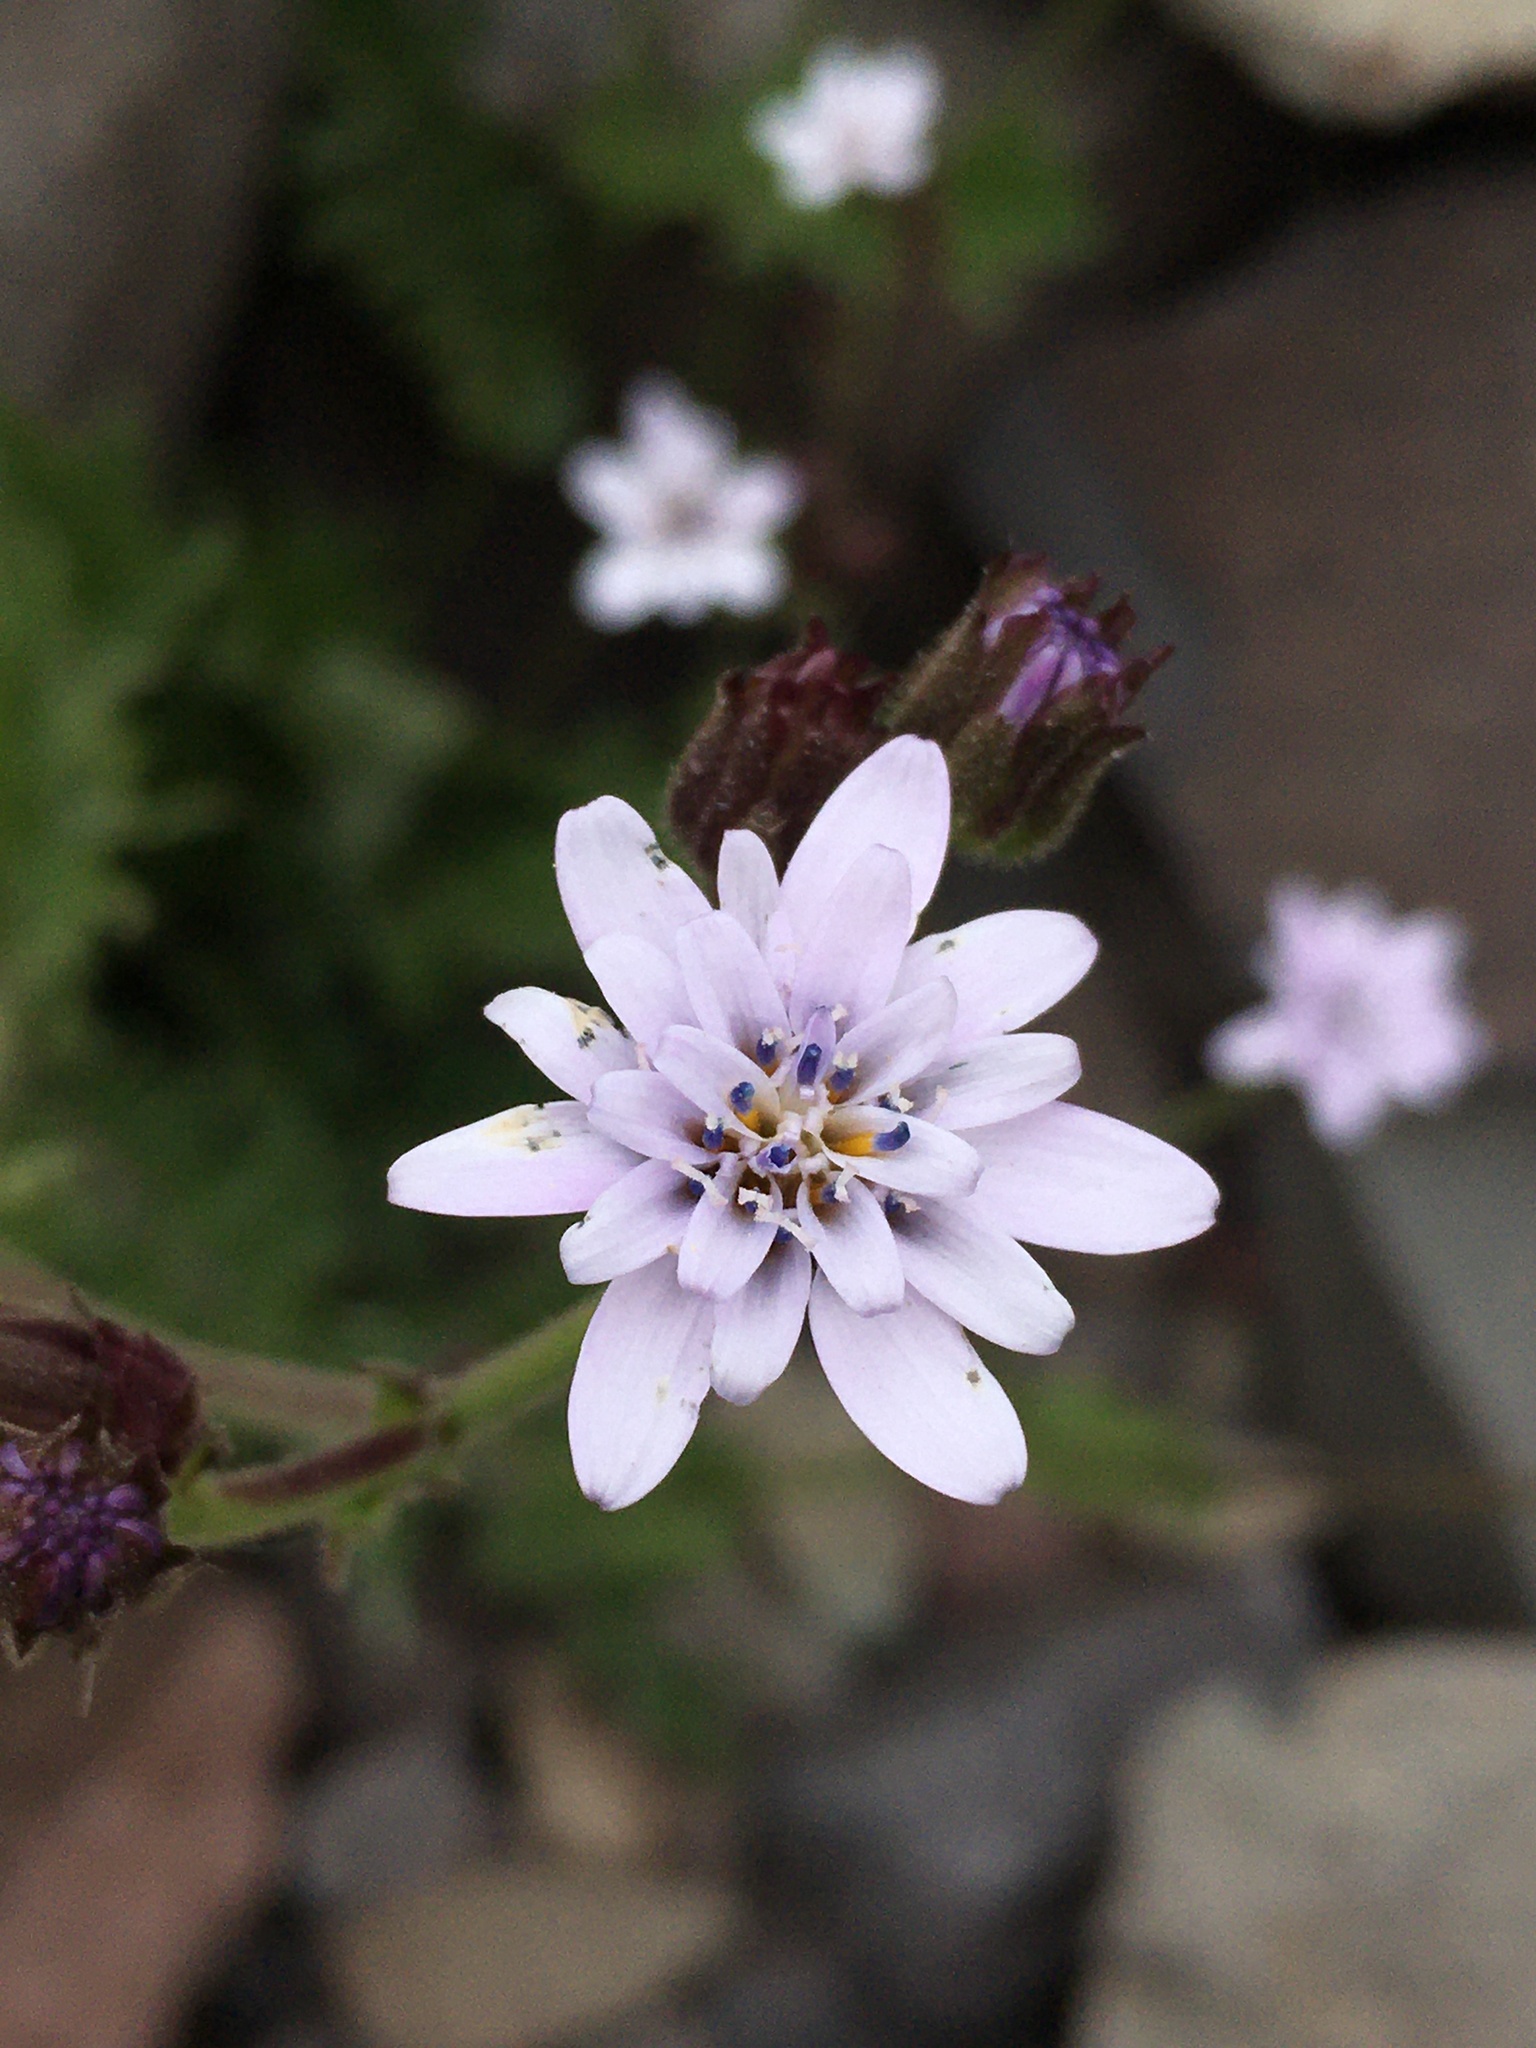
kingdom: Plantae
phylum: Tracheophyta
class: Magnoliopsida
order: Asterales
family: Asteraceae
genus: Leucheria
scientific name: Leucheria runcinata
